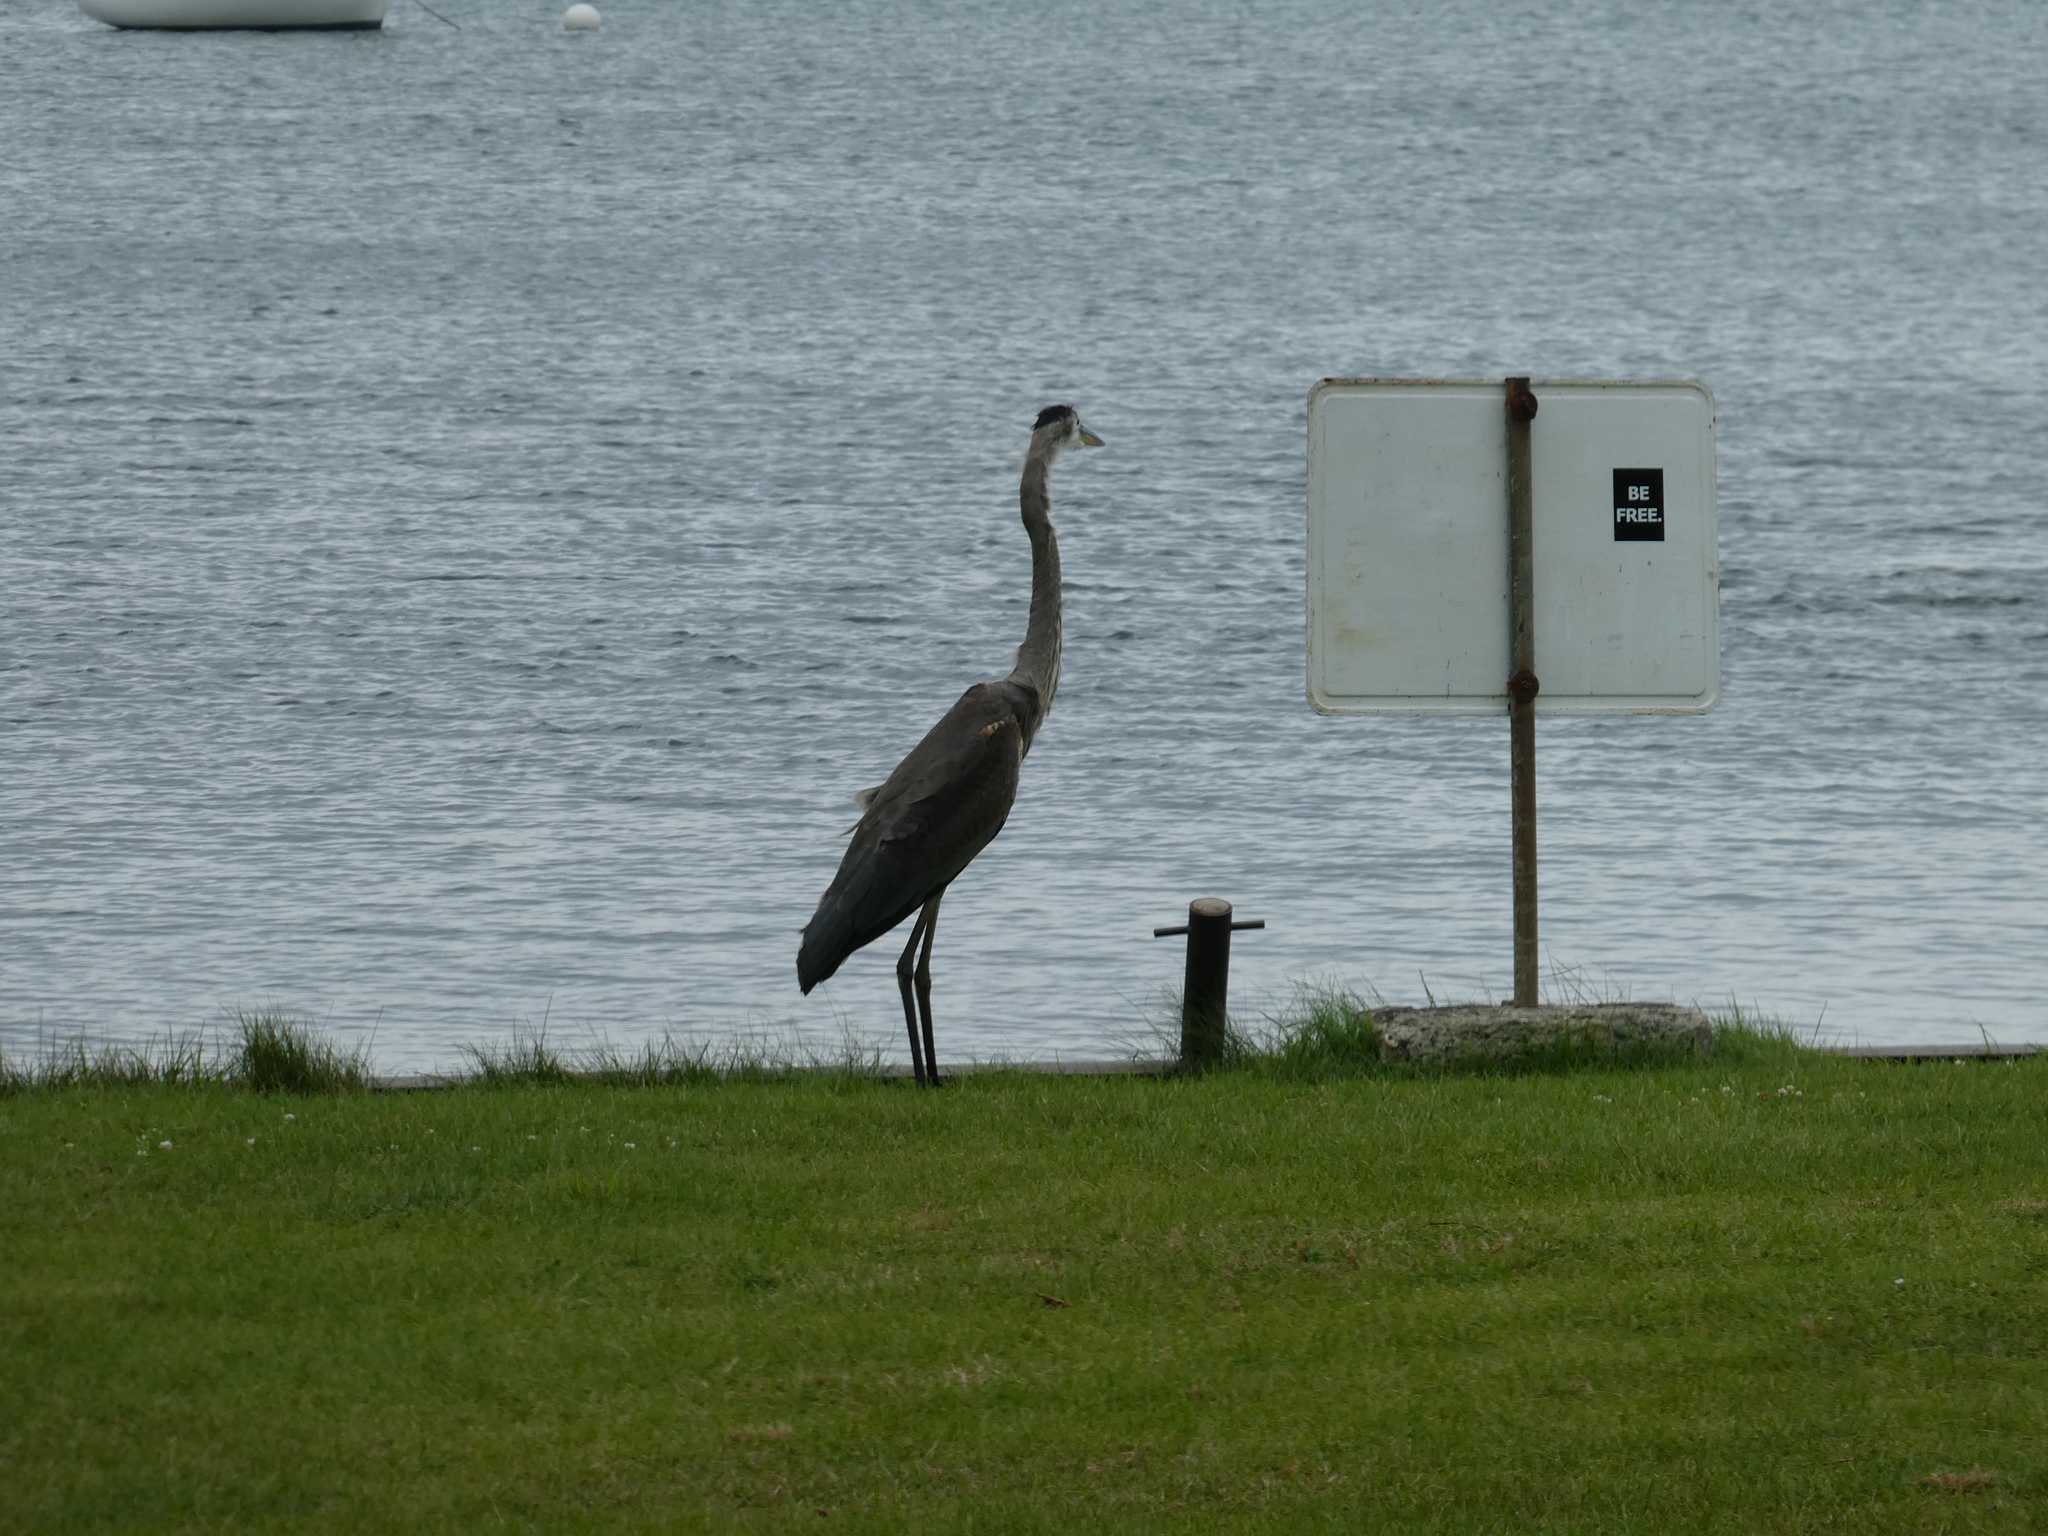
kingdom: Animalia
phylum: Chordata
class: Aves
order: Pelecaniformes
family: Ardeidae
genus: Ardea
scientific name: Ardea herodias
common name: Great blue heron
